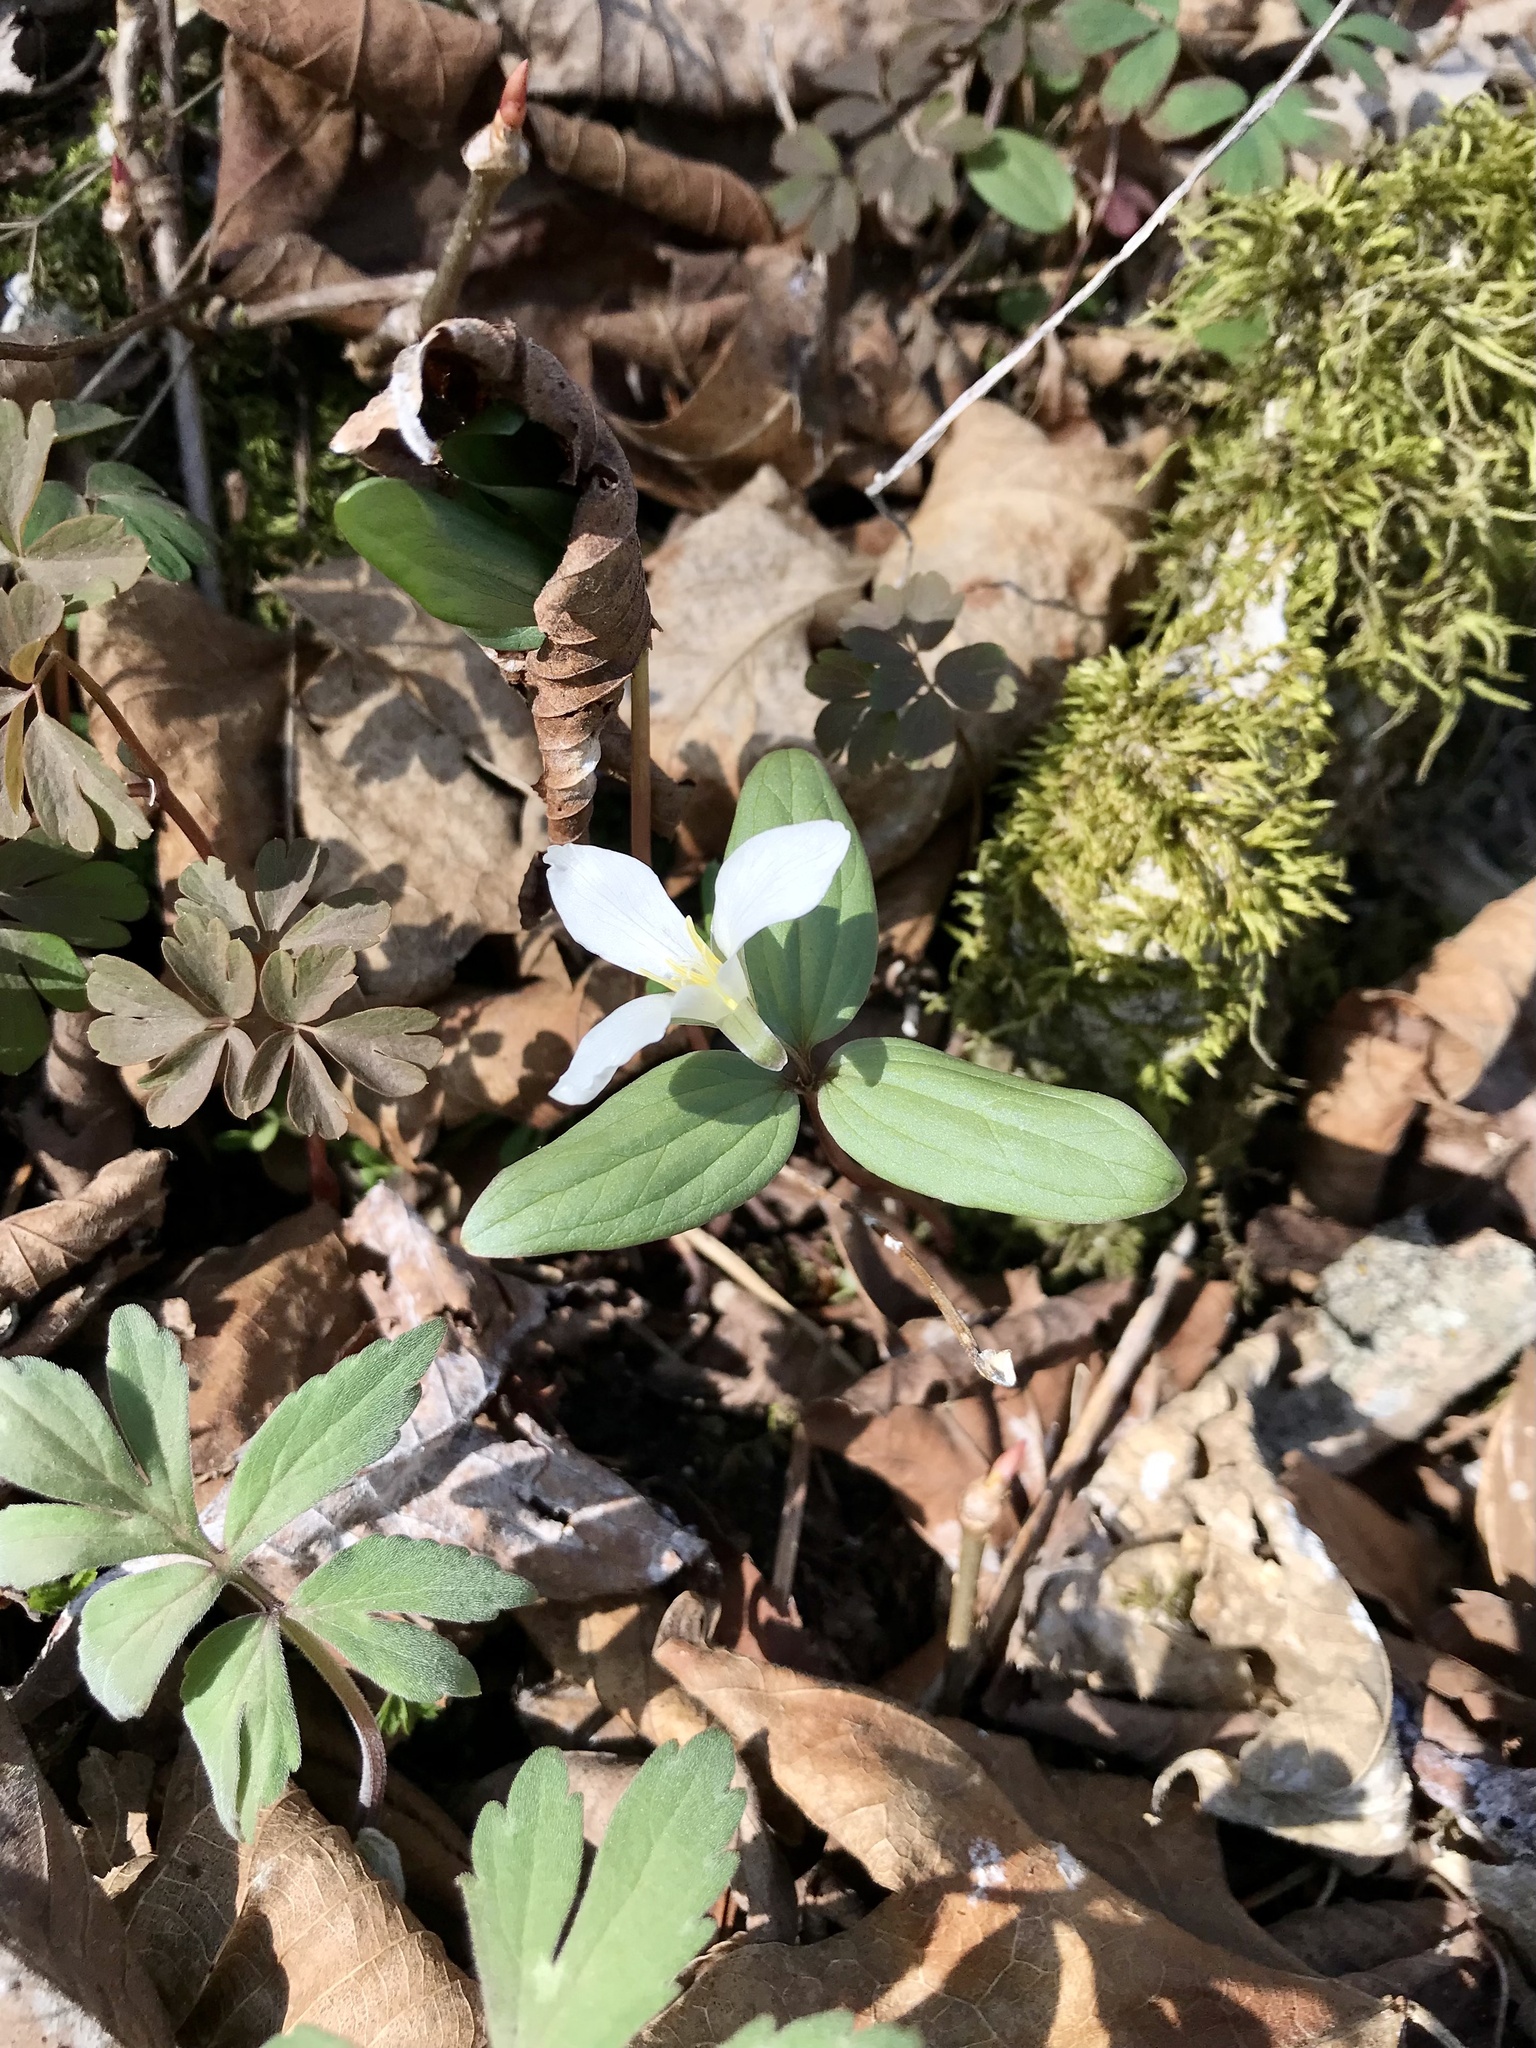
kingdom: Plantae
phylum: Tracheophyta
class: Liliopsida
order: Liliales
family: Melanthiaceae
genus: Trillium
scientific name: Trillium nivale
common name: Dwarf white trillium
